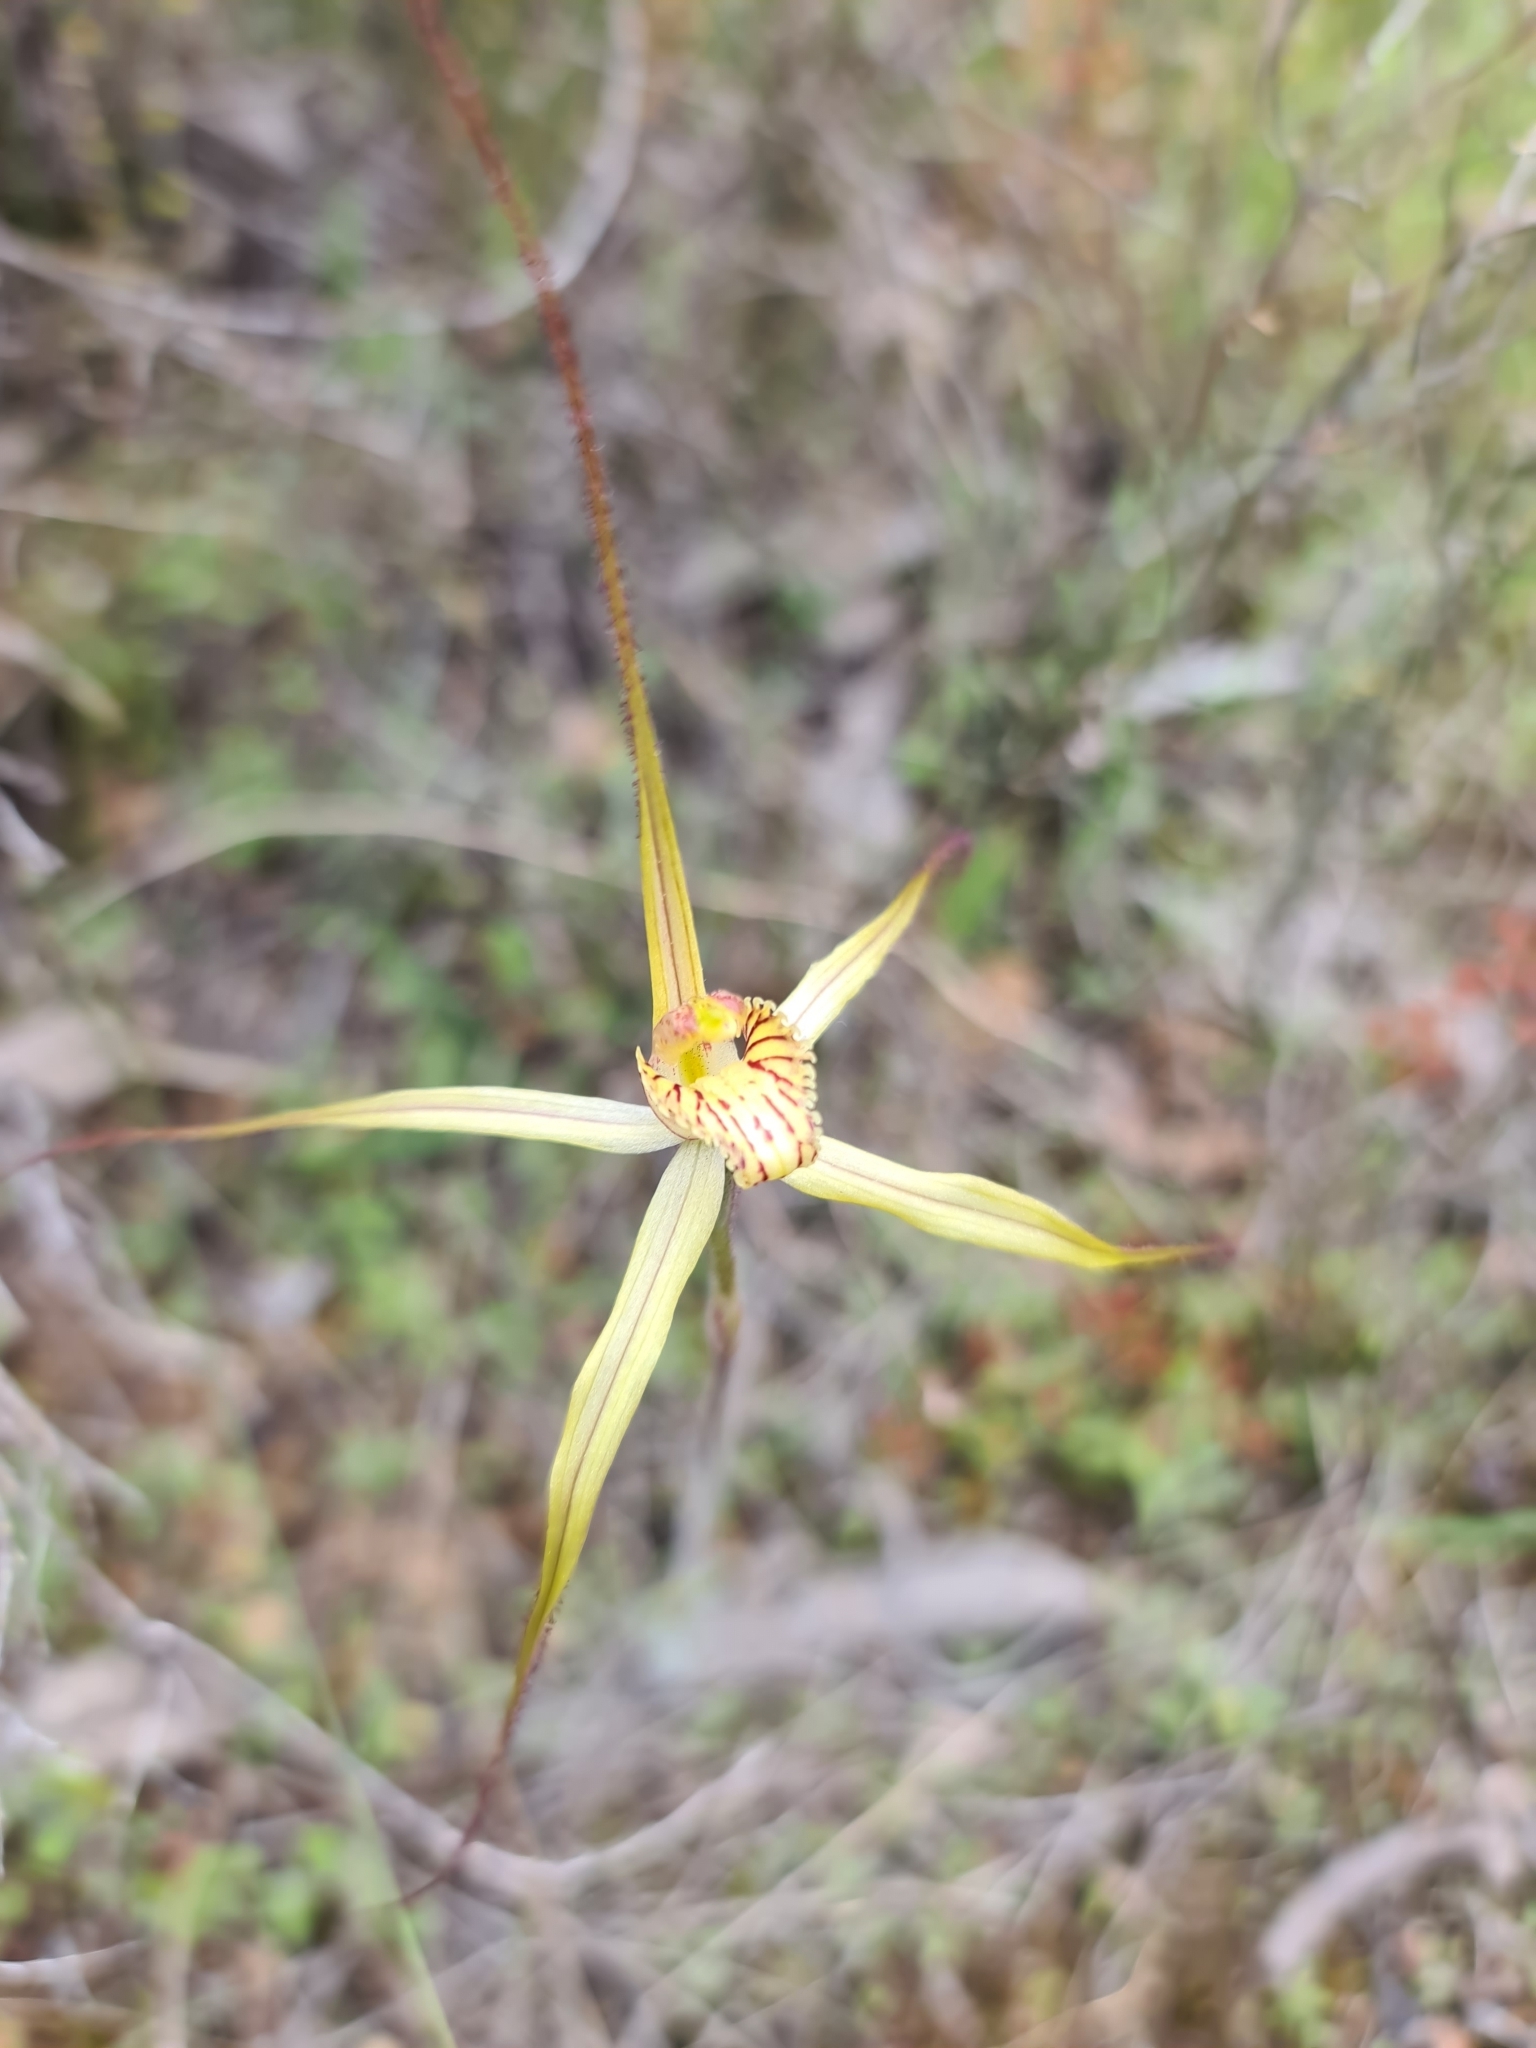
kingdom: Plantae
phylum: Tracheophyta
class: Liliopsida
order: Asparagales
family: Orchidaceae
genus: Caladenia
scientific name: Caladenia straminichila
